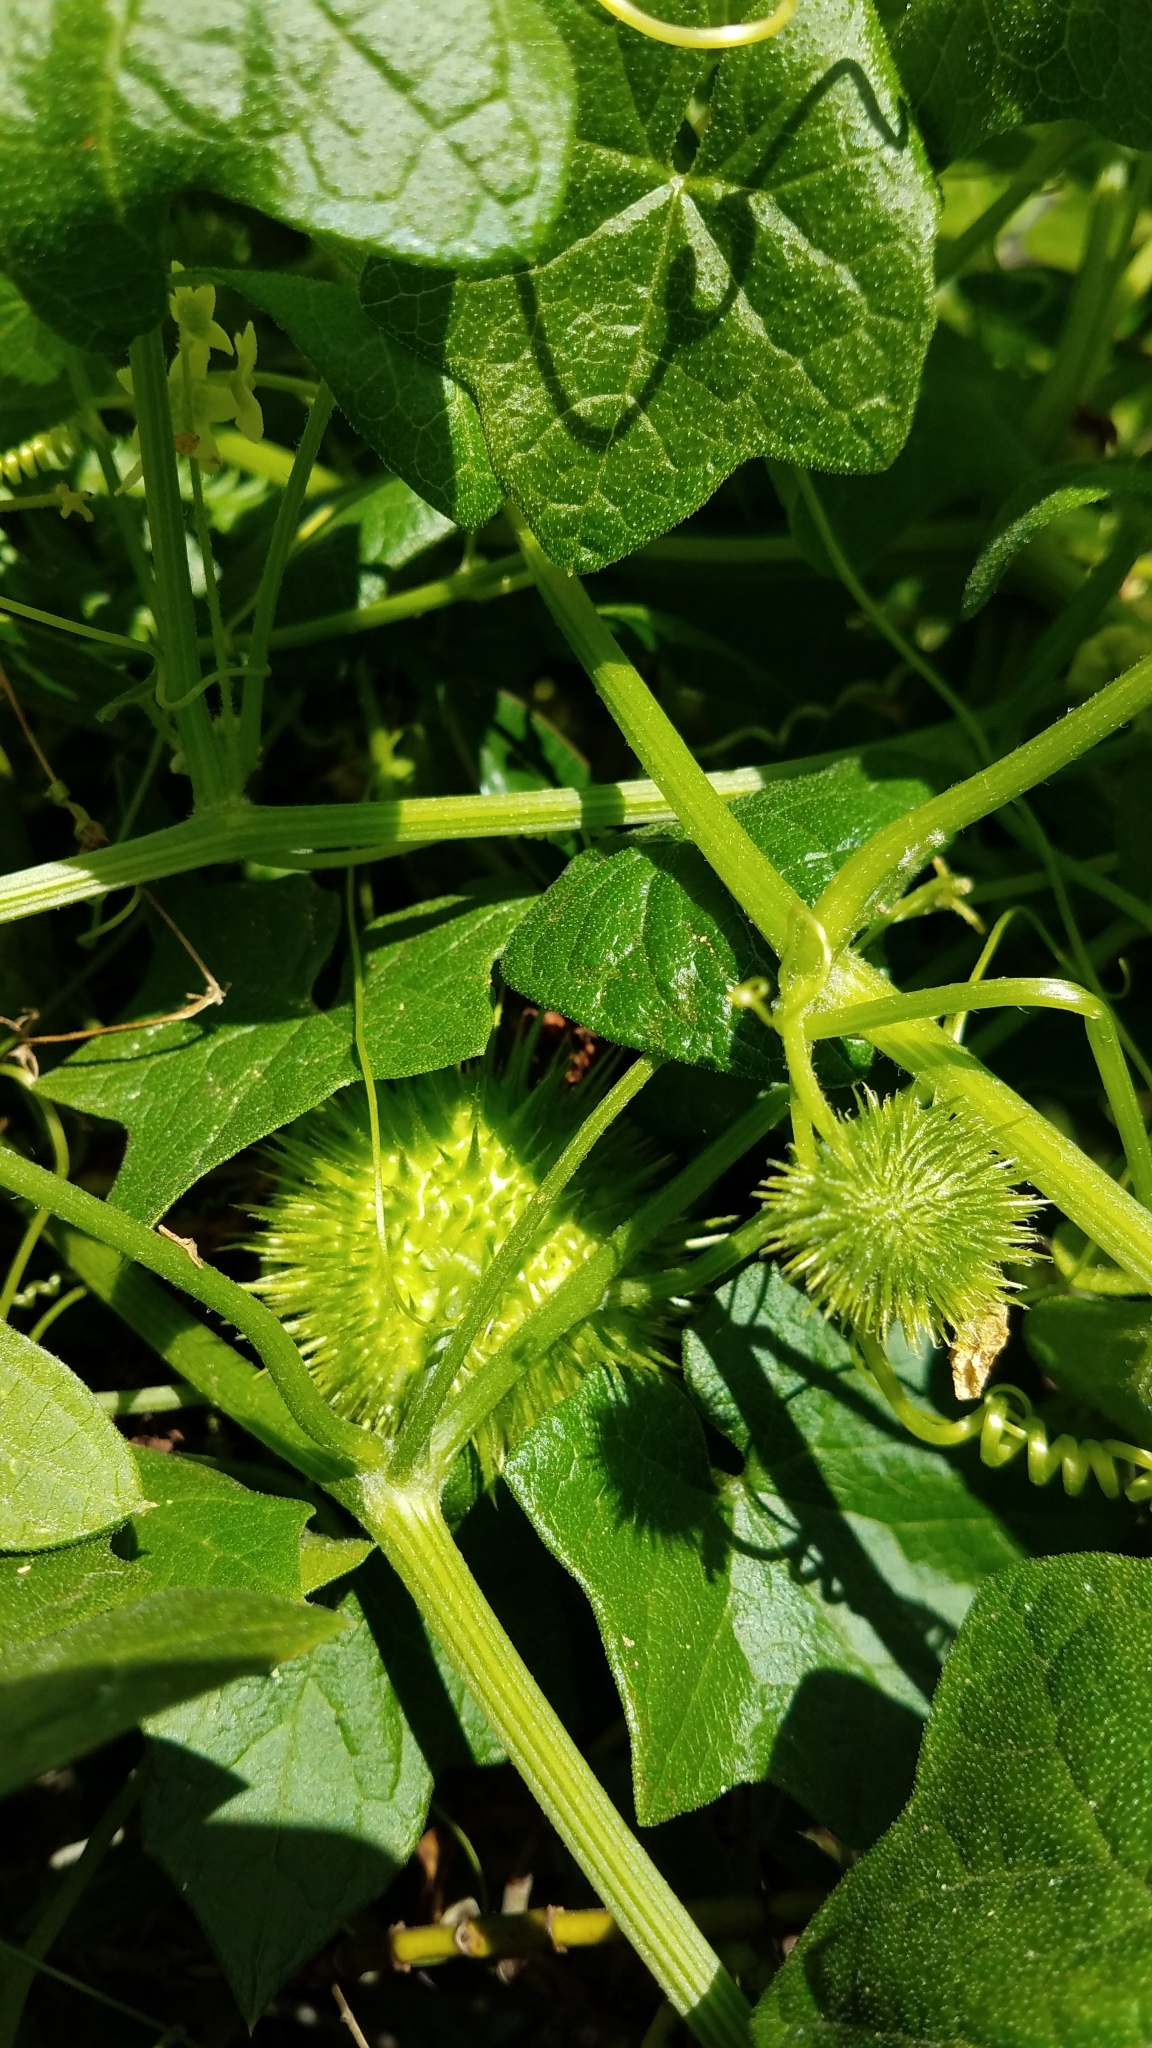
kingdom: Plantae
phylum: Tracheophyta
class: Magnoliopsida
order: Cucurbitales
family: Cucurbitaceae
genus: Marah
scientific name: Marah fabacea
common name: California manroot
